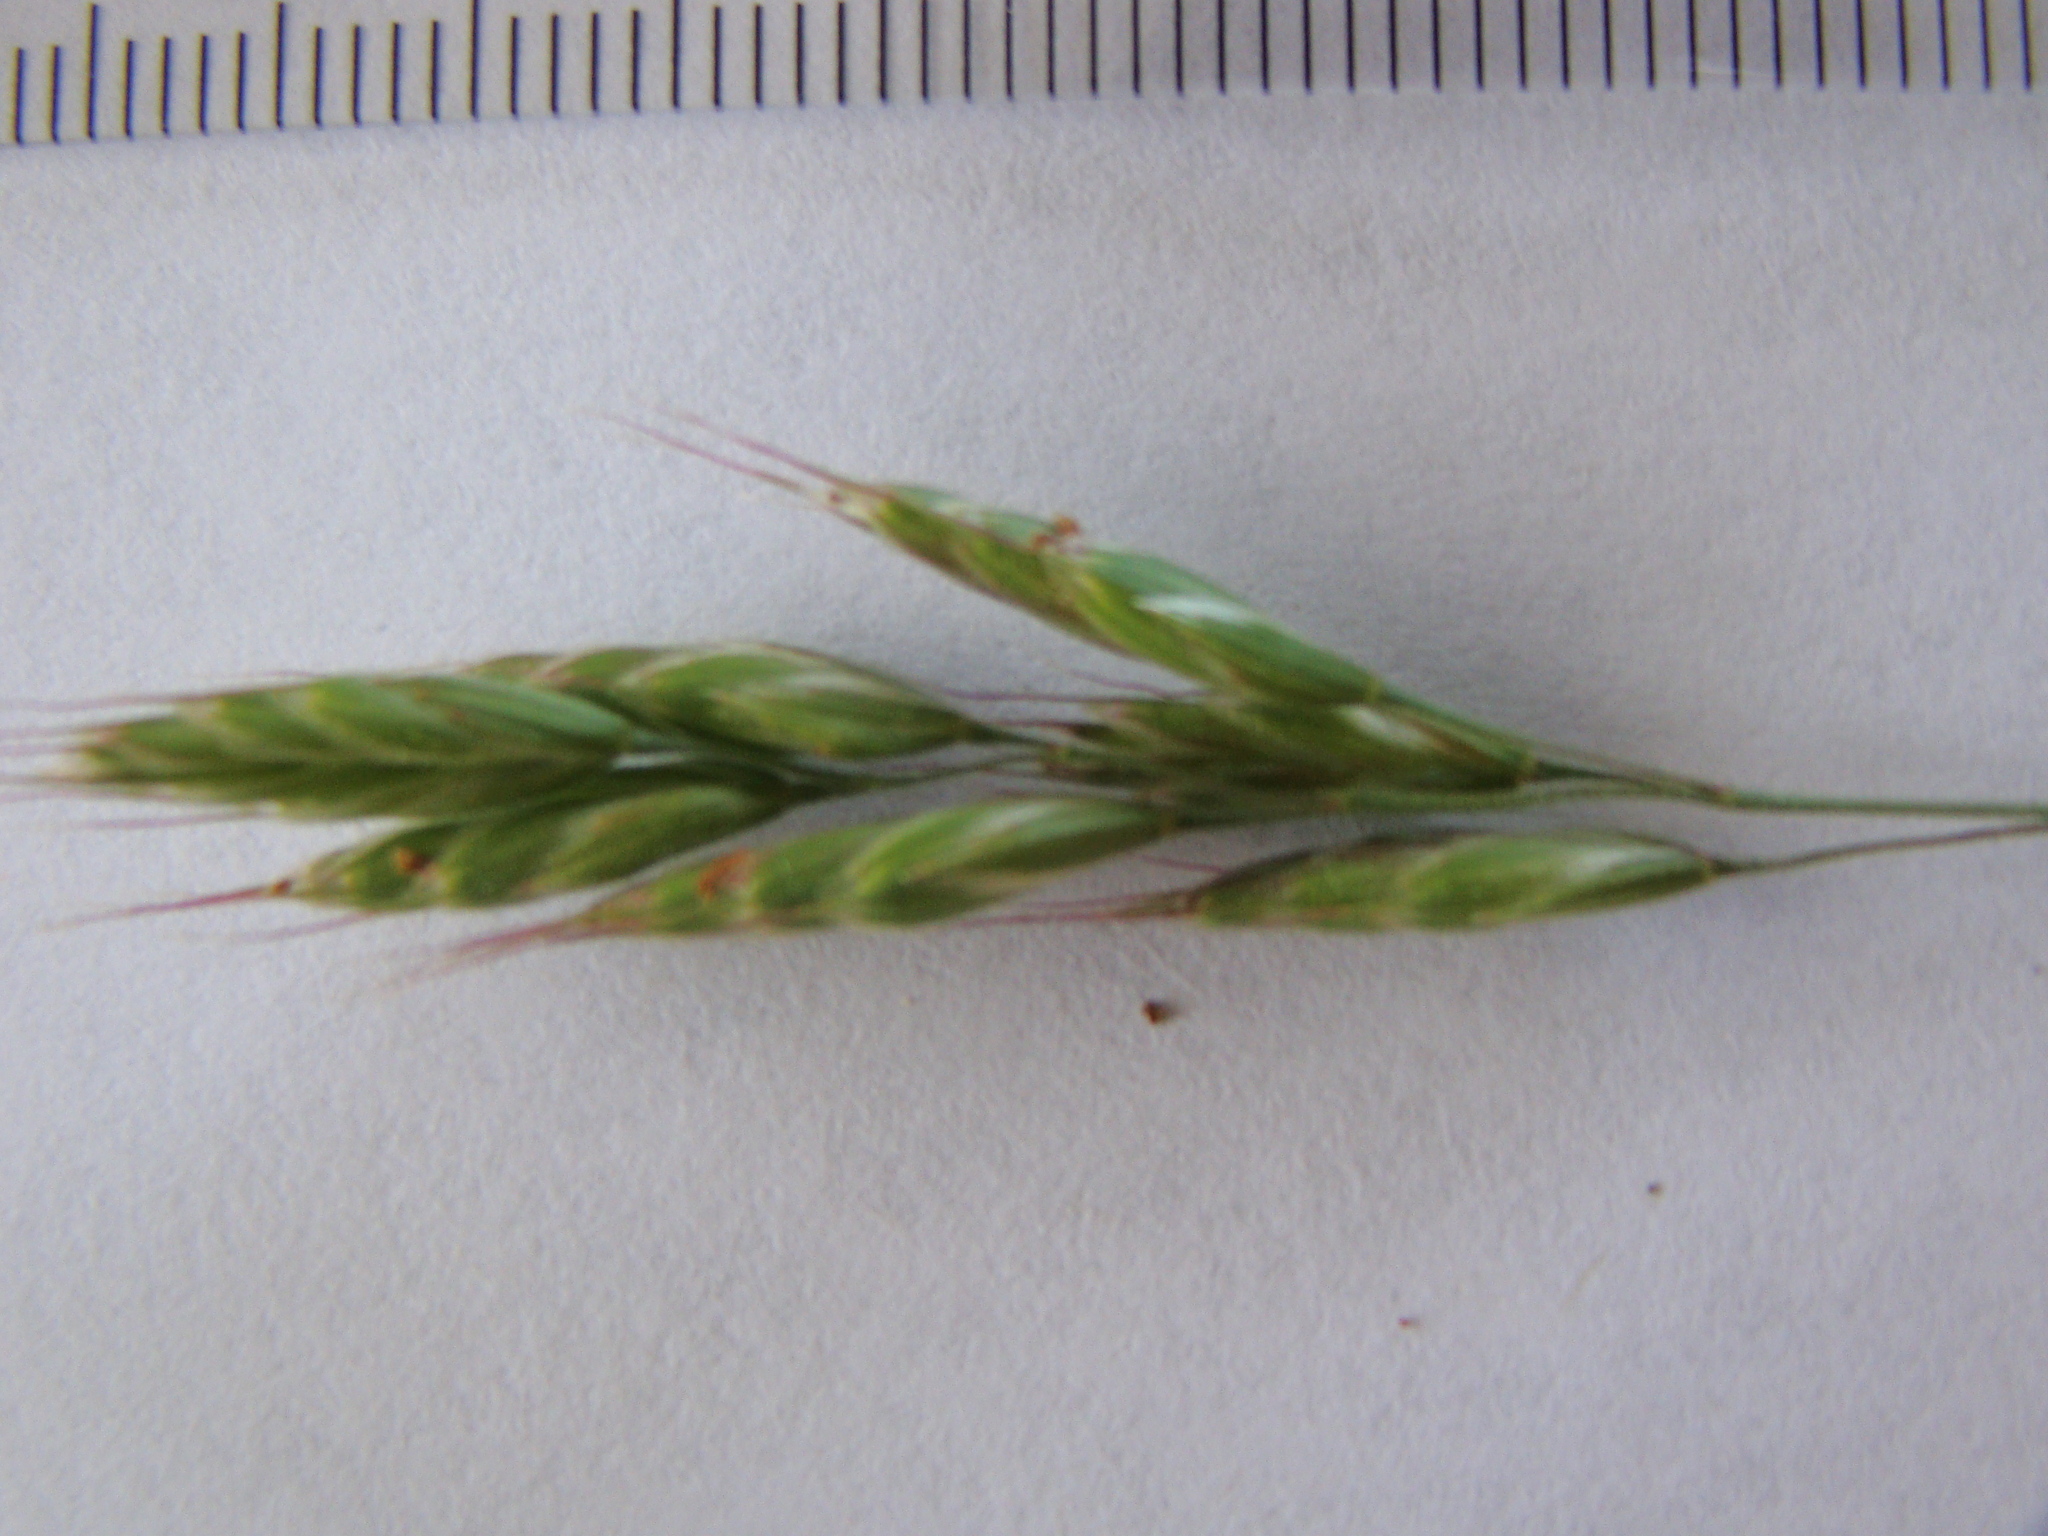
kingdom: Plantae
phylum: Tracheophyta
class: Liliopsida
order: Poales
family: Poaceae
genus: Bromus
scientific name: Bromus hordeaceus
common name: Soft brome
